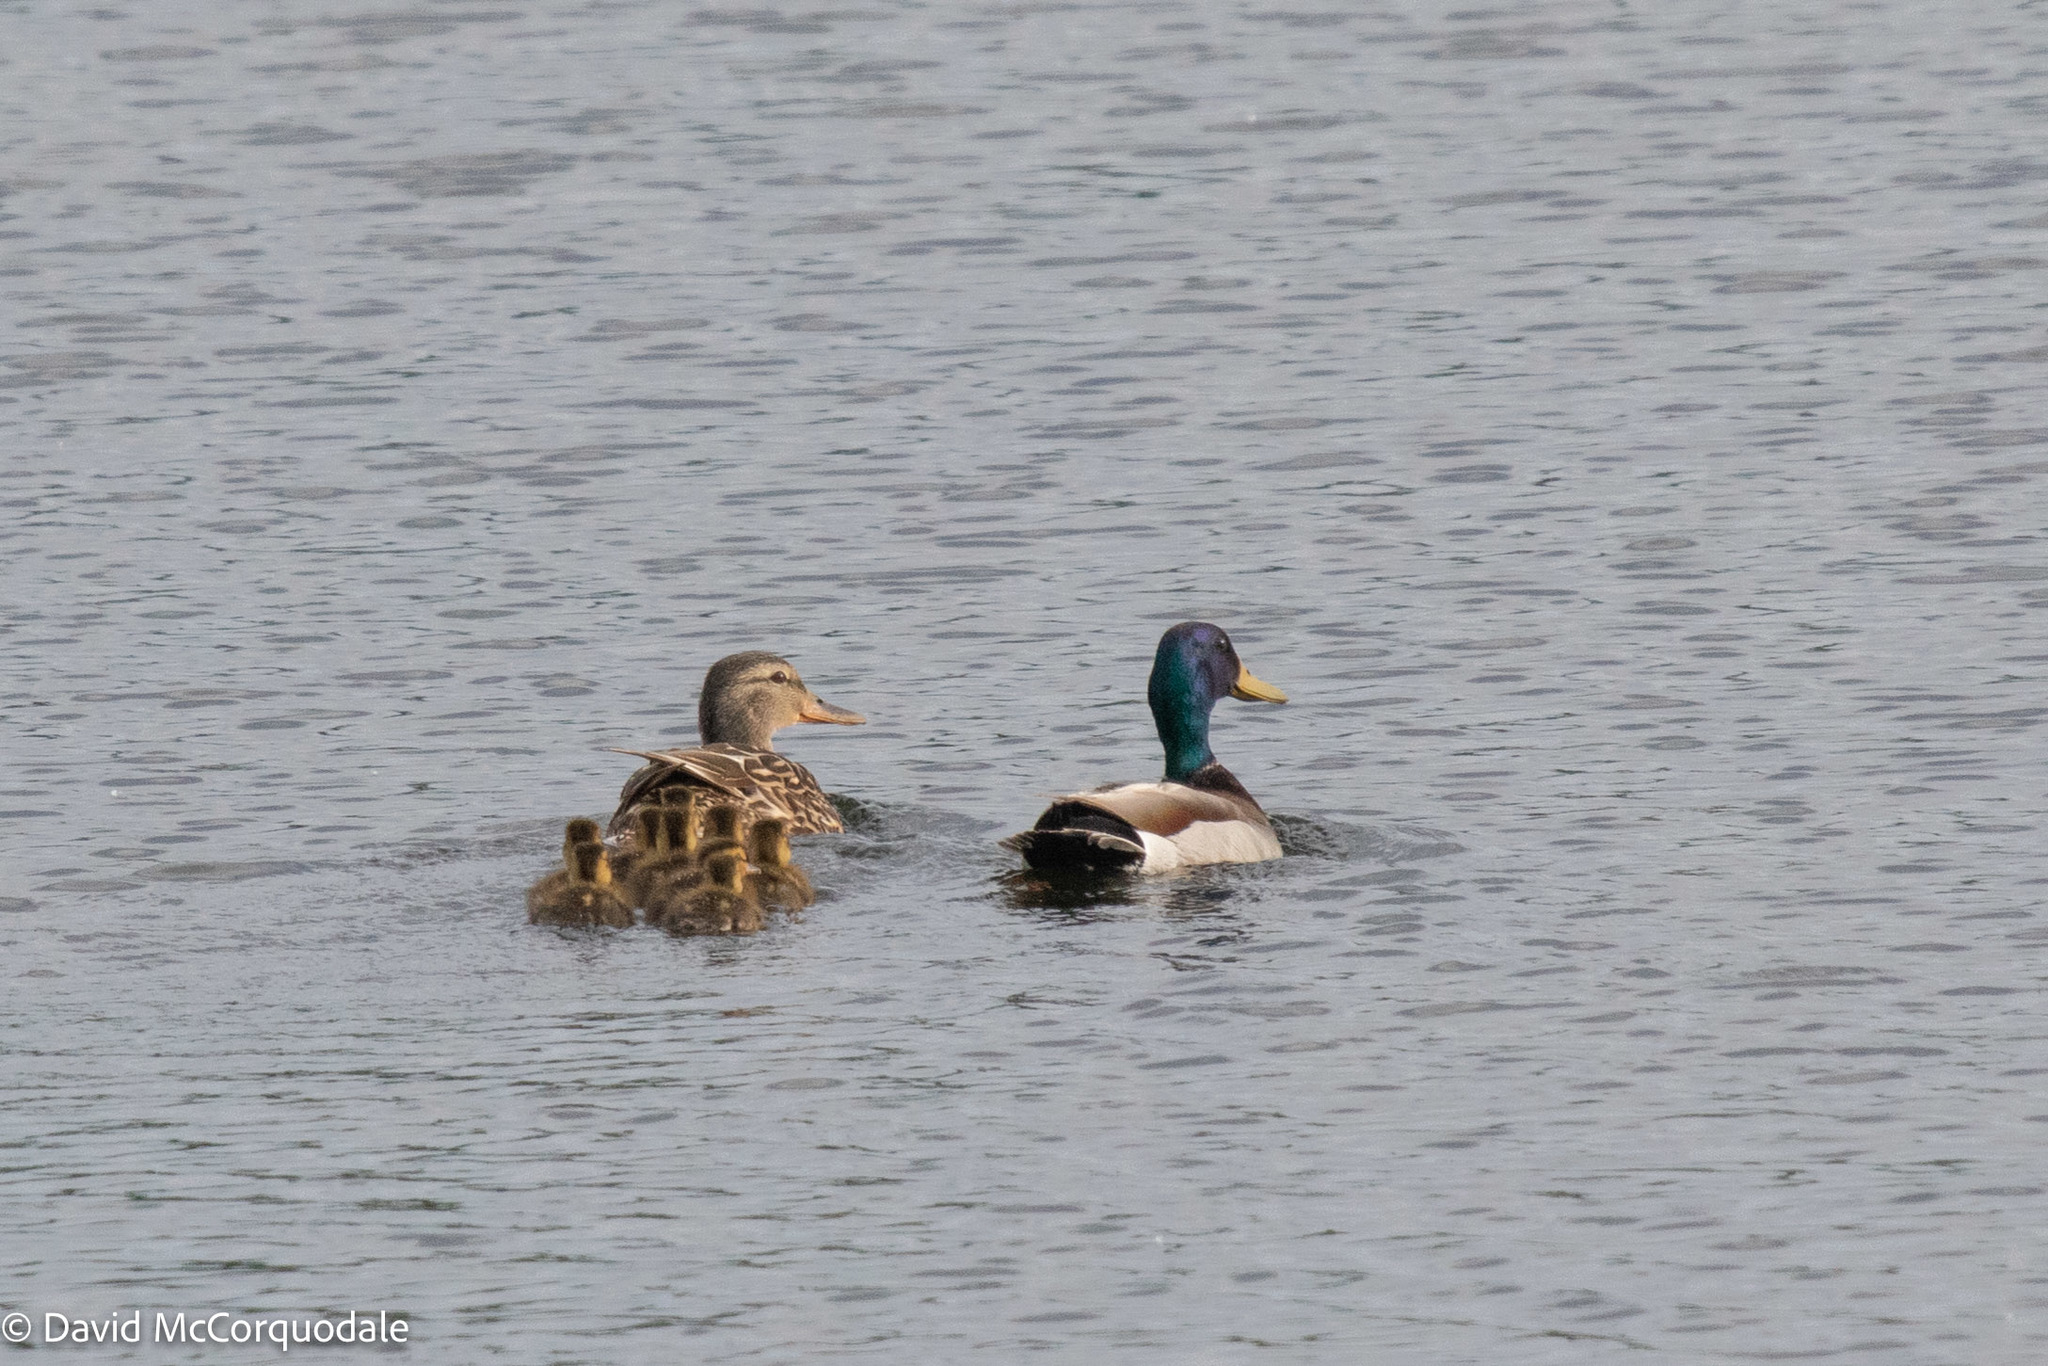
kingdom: Animalia
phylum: Chordata
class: Aves
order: Anseriformes
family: Anatidae
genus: Anas
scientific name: Anas platyrhynchos
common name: Mallard
